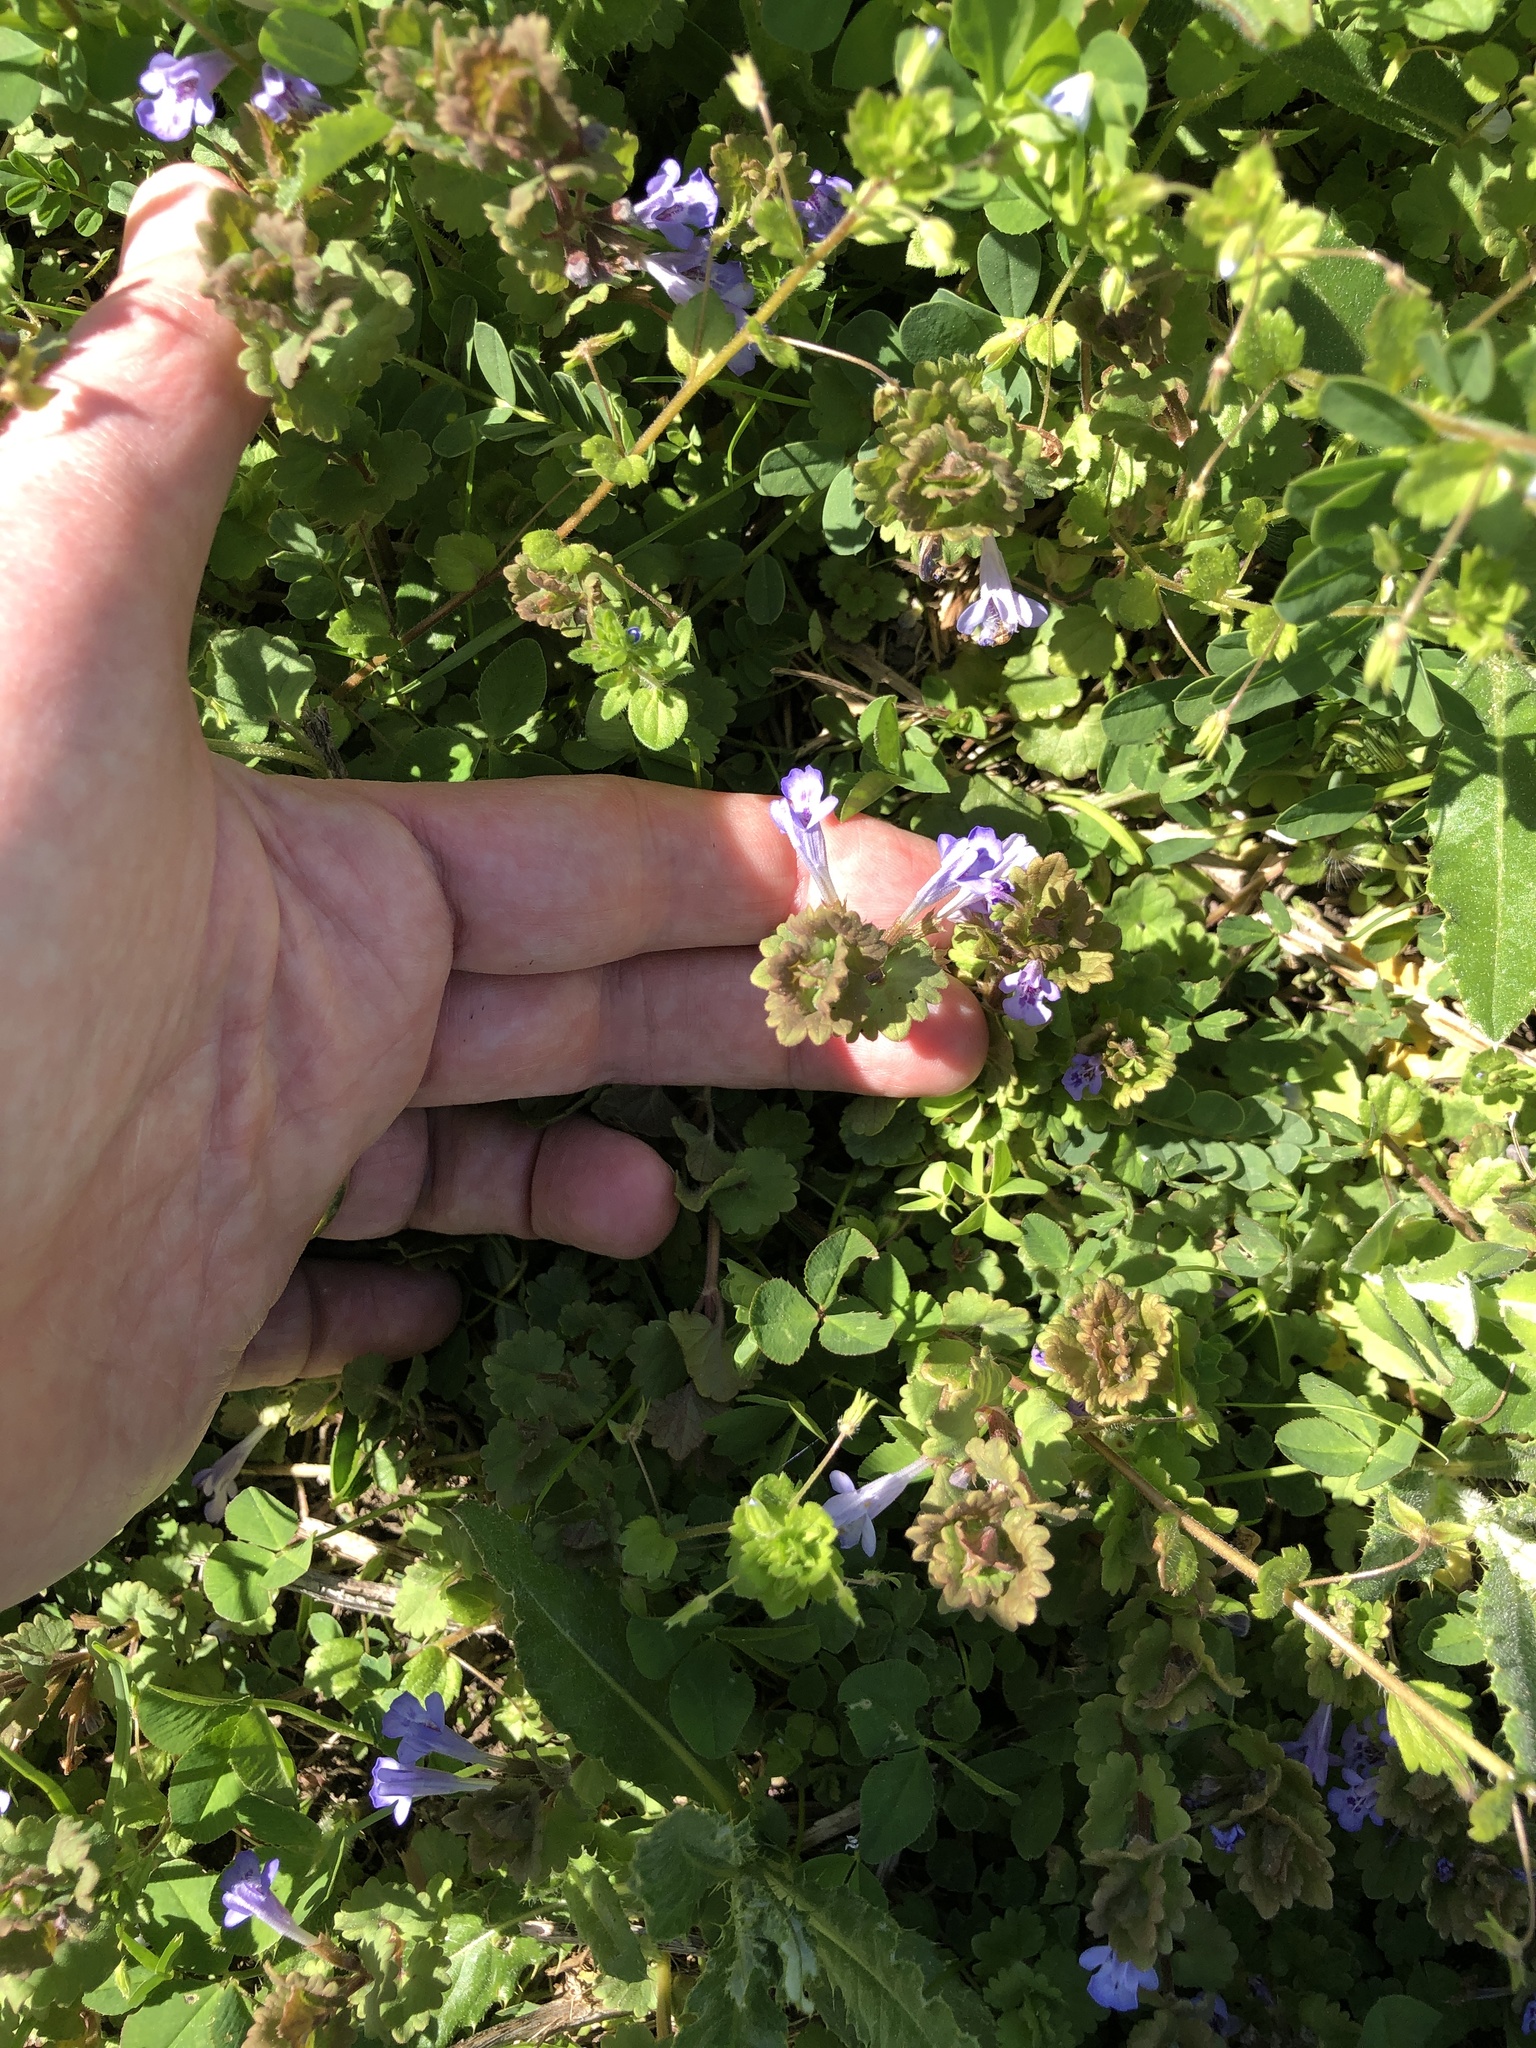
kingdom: Plantae
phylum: Tracheophyta
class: Magnoliopsida
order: Lamiales
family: Lamiaceae
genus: Glechoma
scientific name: Glechoma hederacea
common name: Ground ivy
